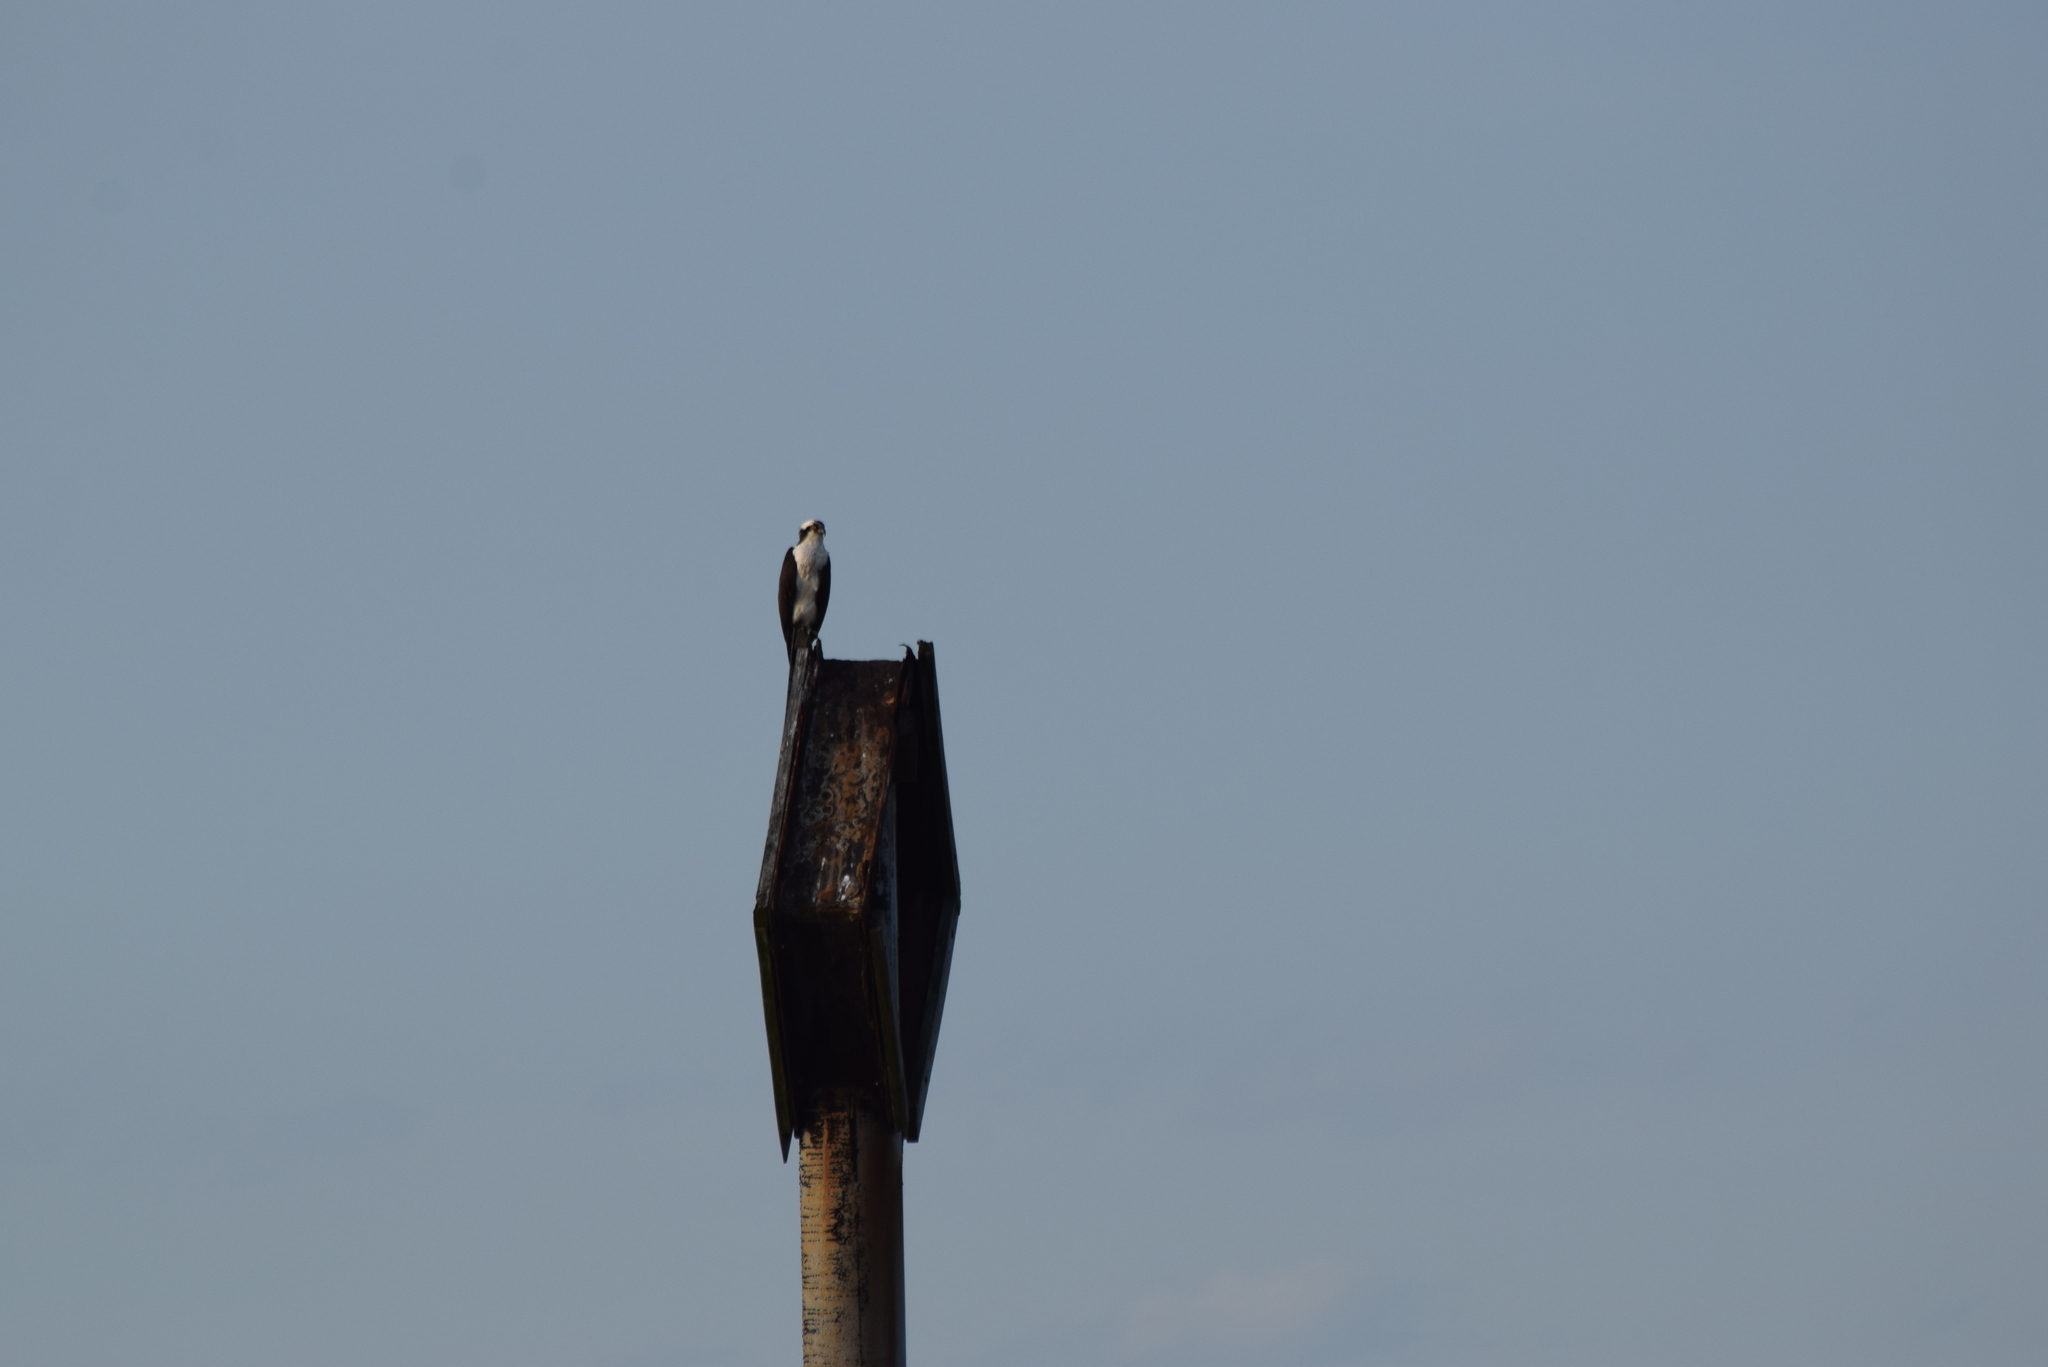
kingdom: Animalia
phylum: Chordata
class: Aves
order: Accipitriformes
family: Pandionidae
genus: Pandion
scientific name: Pandion haliaetus
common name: Osprey
